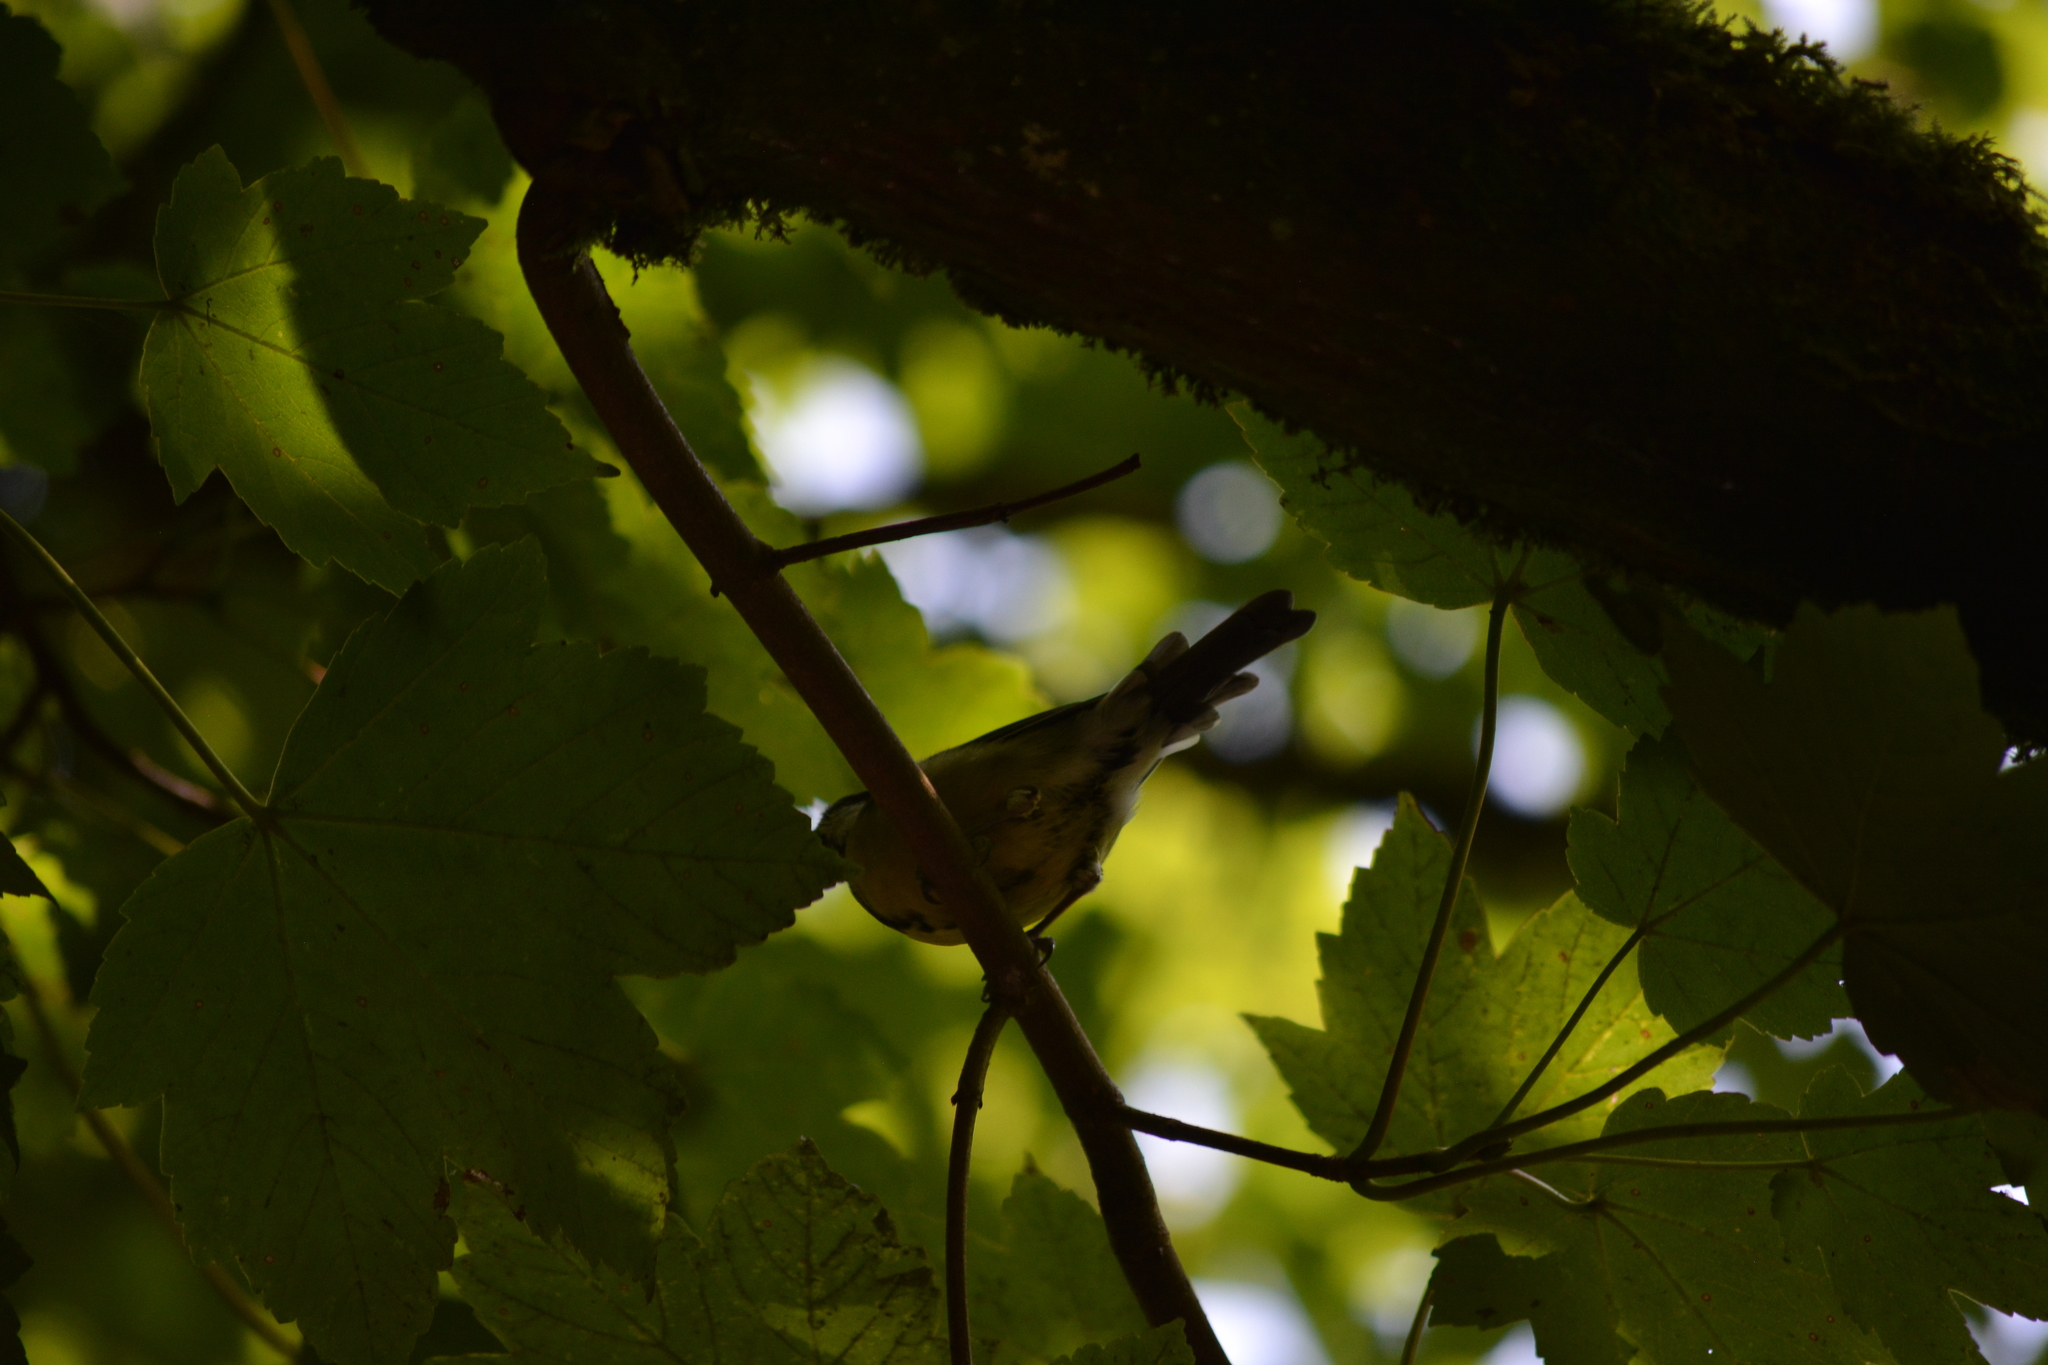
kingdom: Animalia
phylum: Chordata
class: Aves
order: Passeriformes
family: Paridae
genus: Parus
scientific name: Parus major
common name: Great tit
